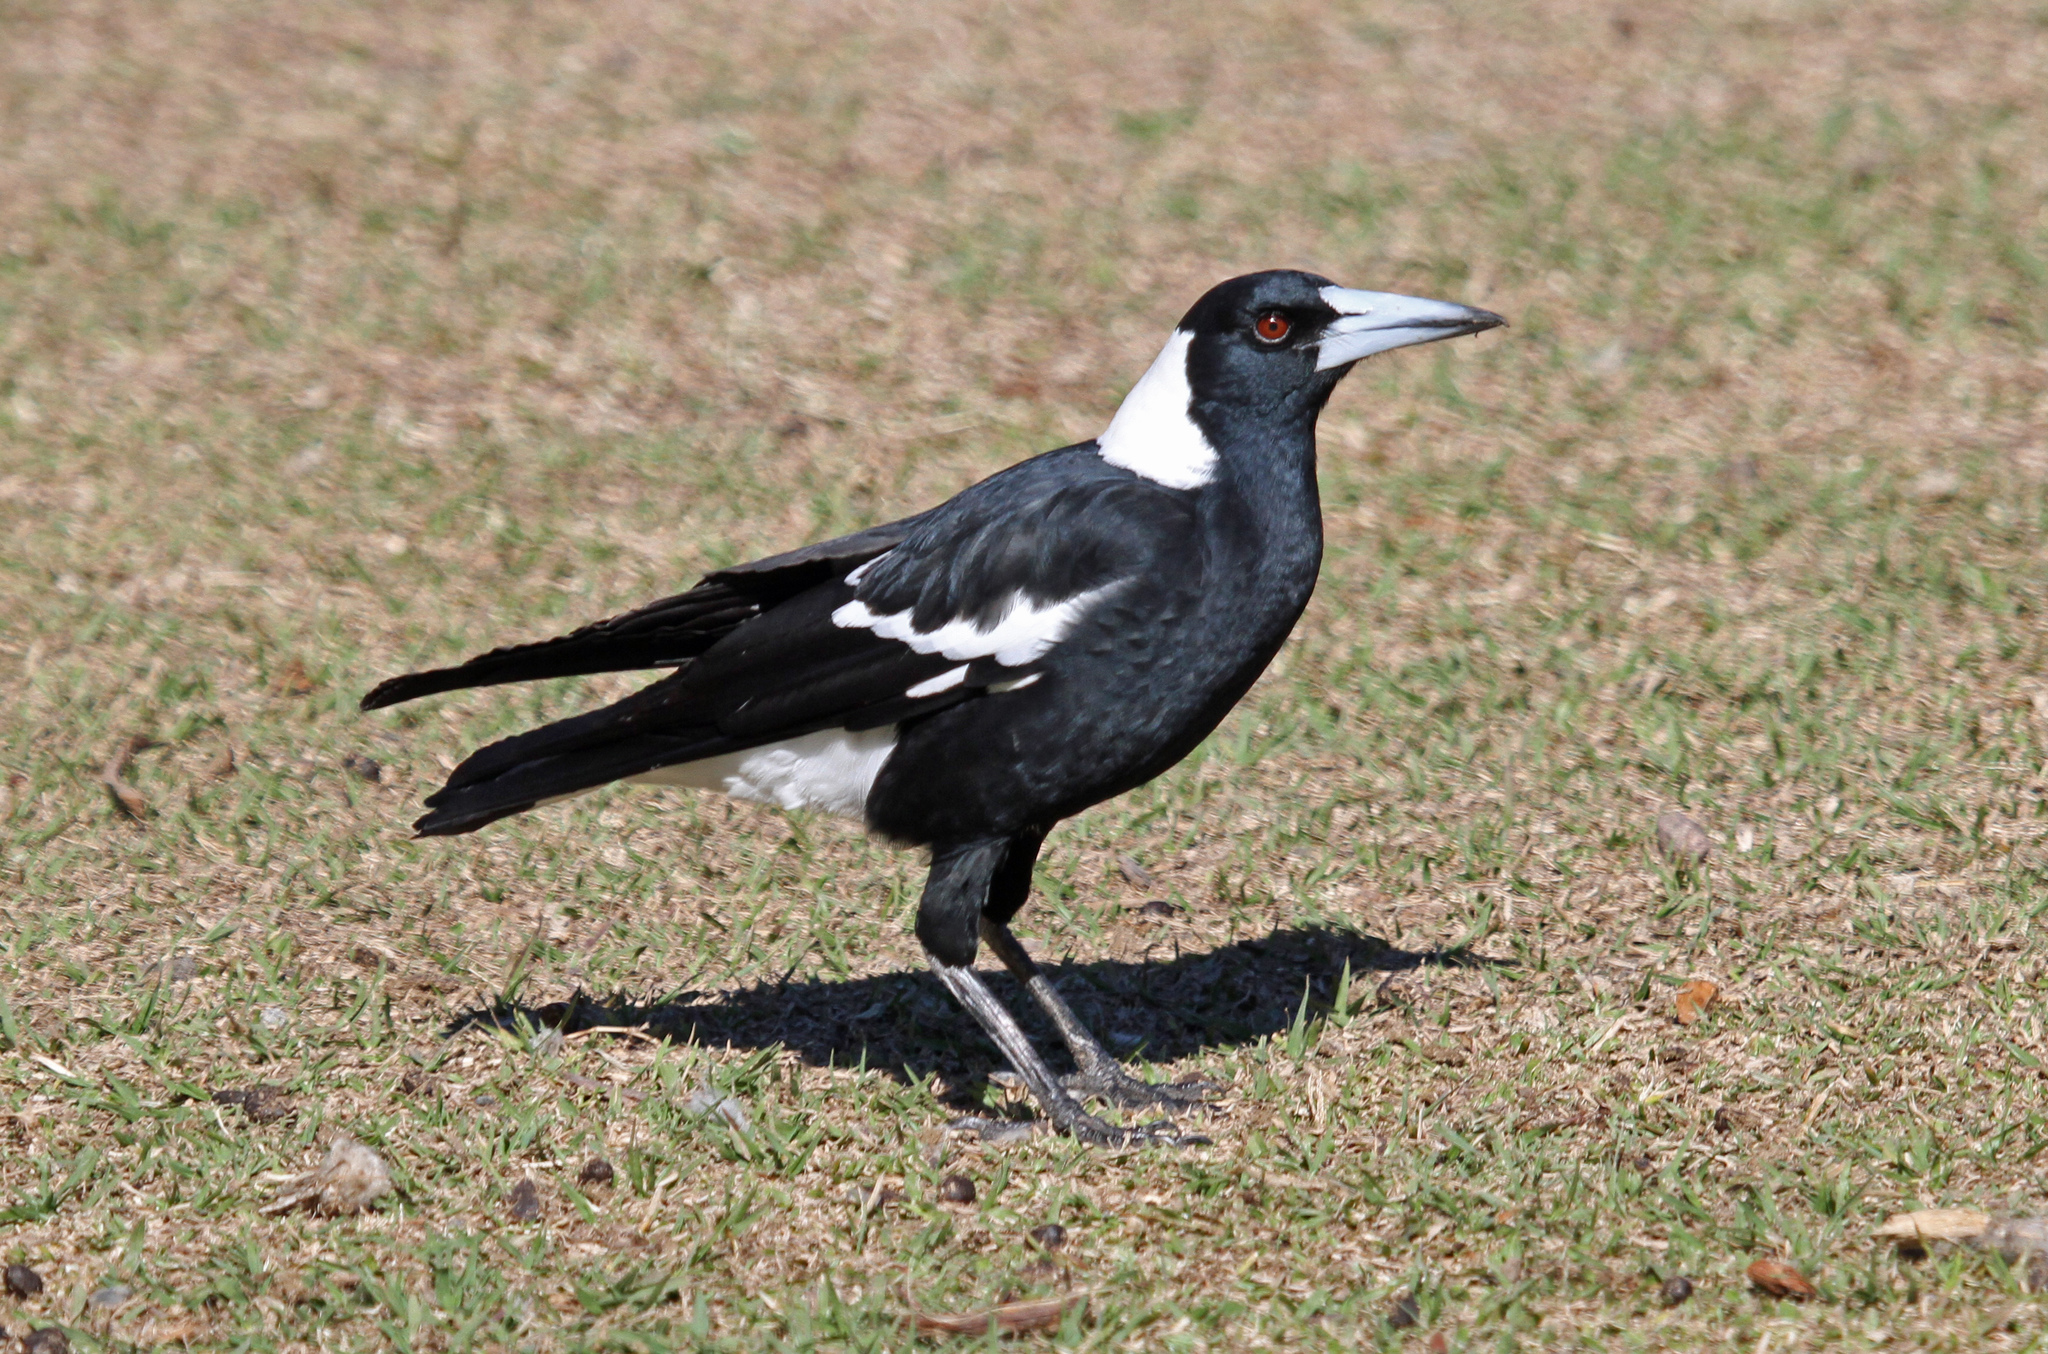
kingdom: Animalia
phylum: Chordata
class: Aves
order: Passeriformes
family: Cracticidae
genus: Gymnorhina
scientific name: Gymnorhina tibicen
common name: Australian magpie
